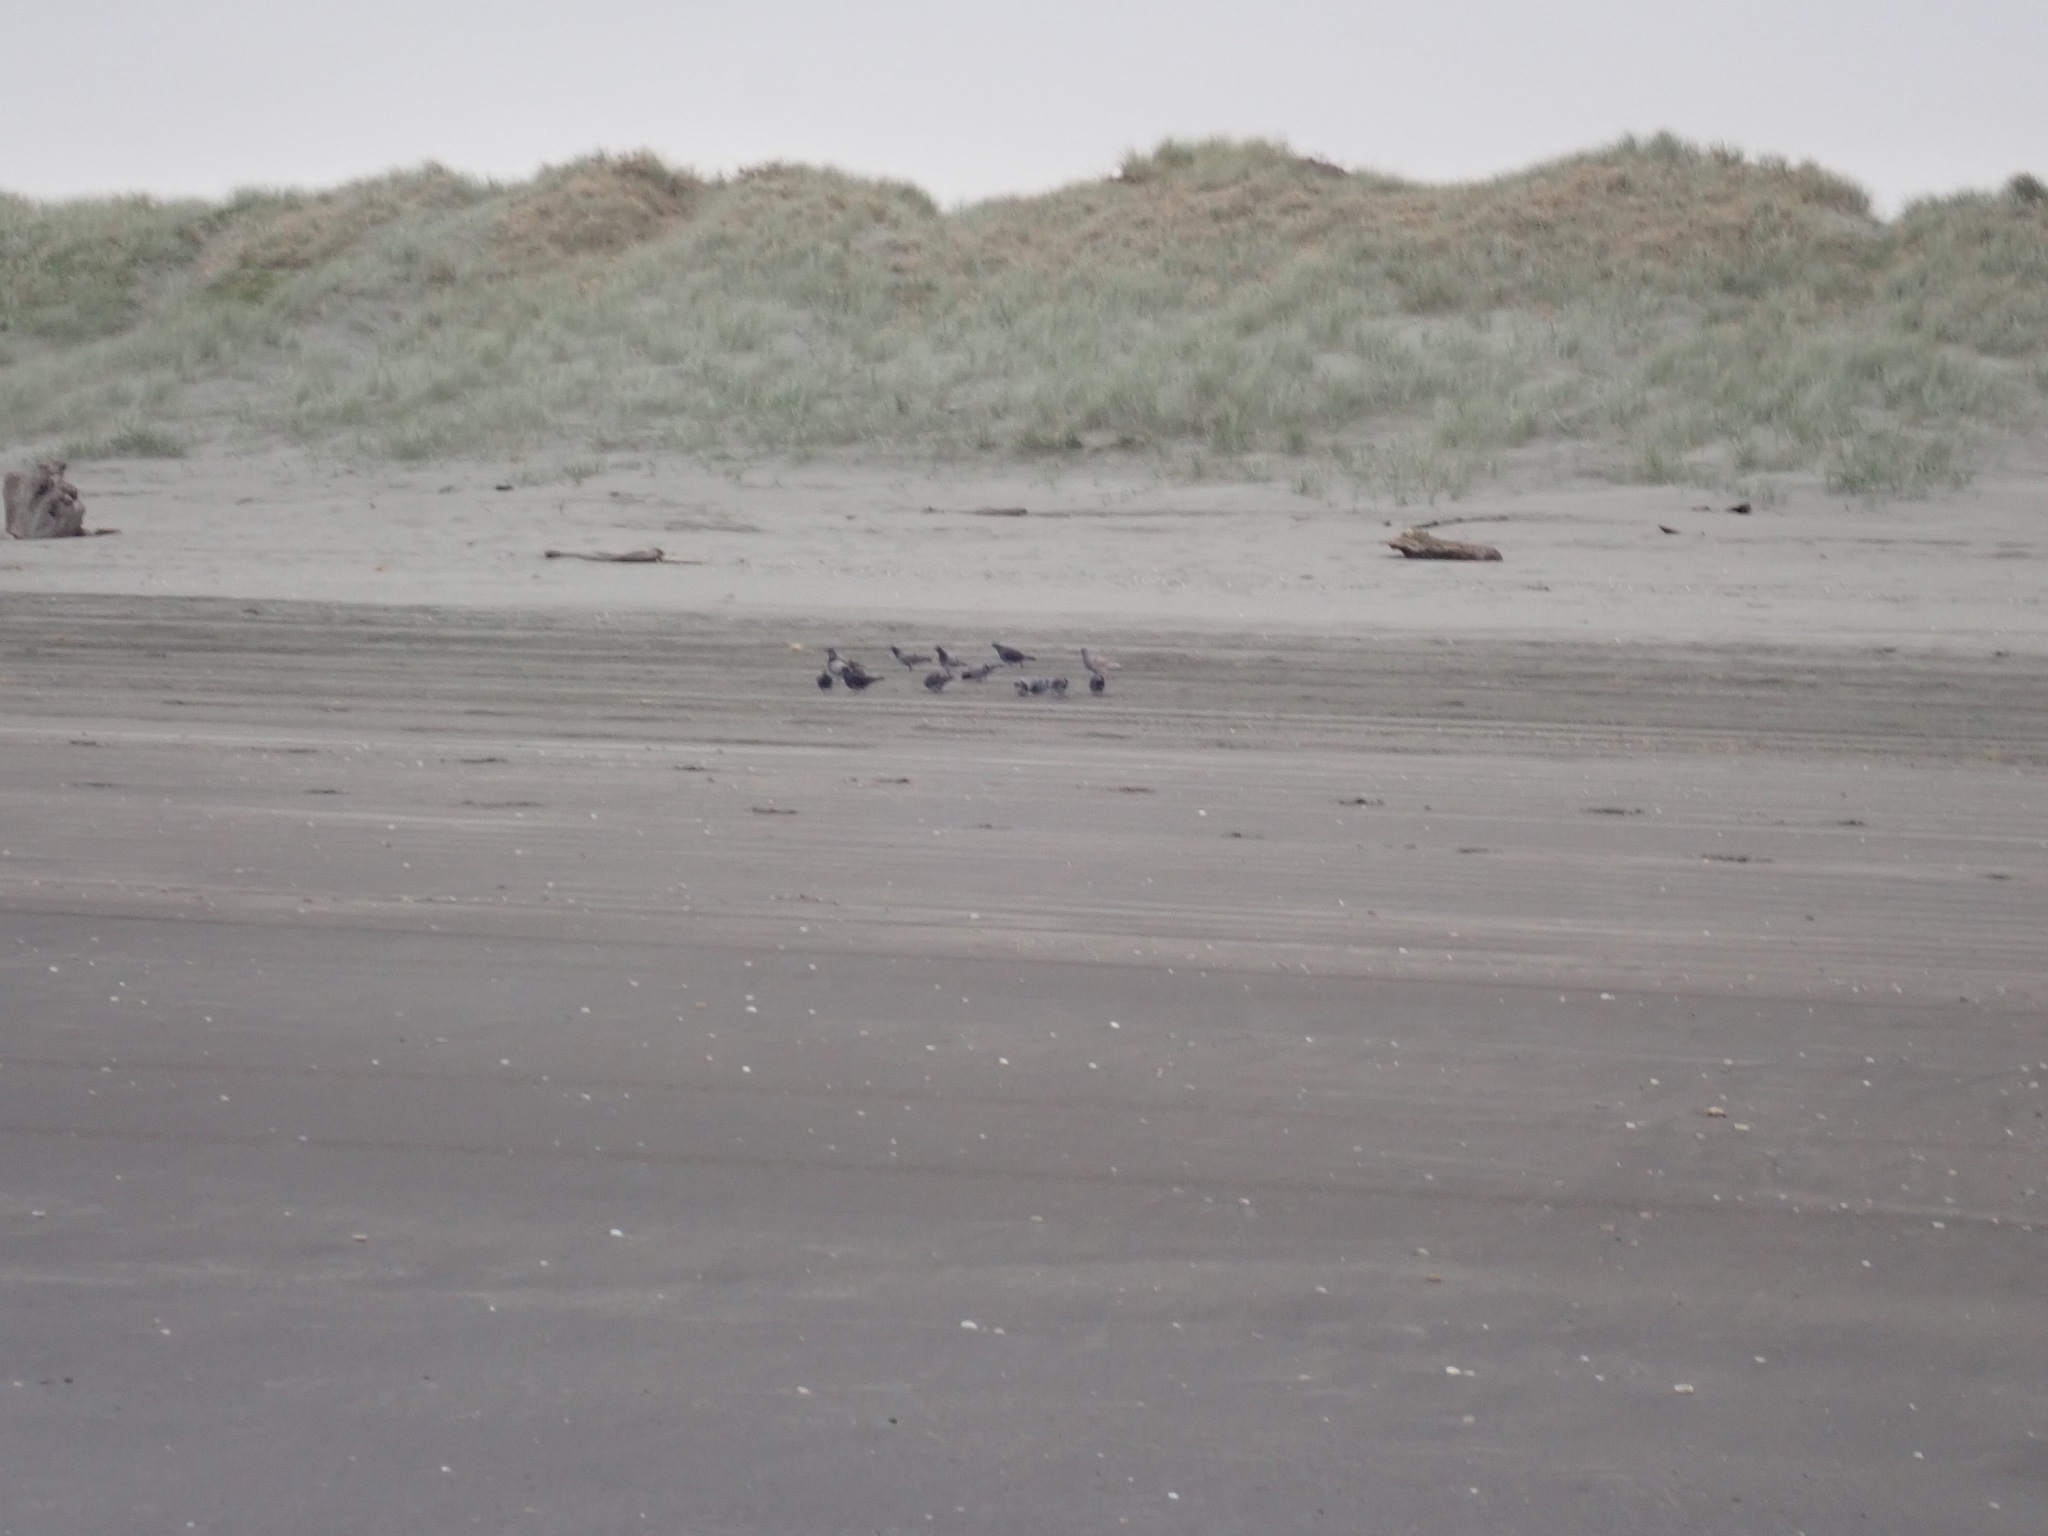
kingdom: Animalia
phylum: Chordata
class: Aves
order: Columbiformes
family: Columbidae
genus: Columba
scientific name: Columba livia
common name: Rock pigeon
